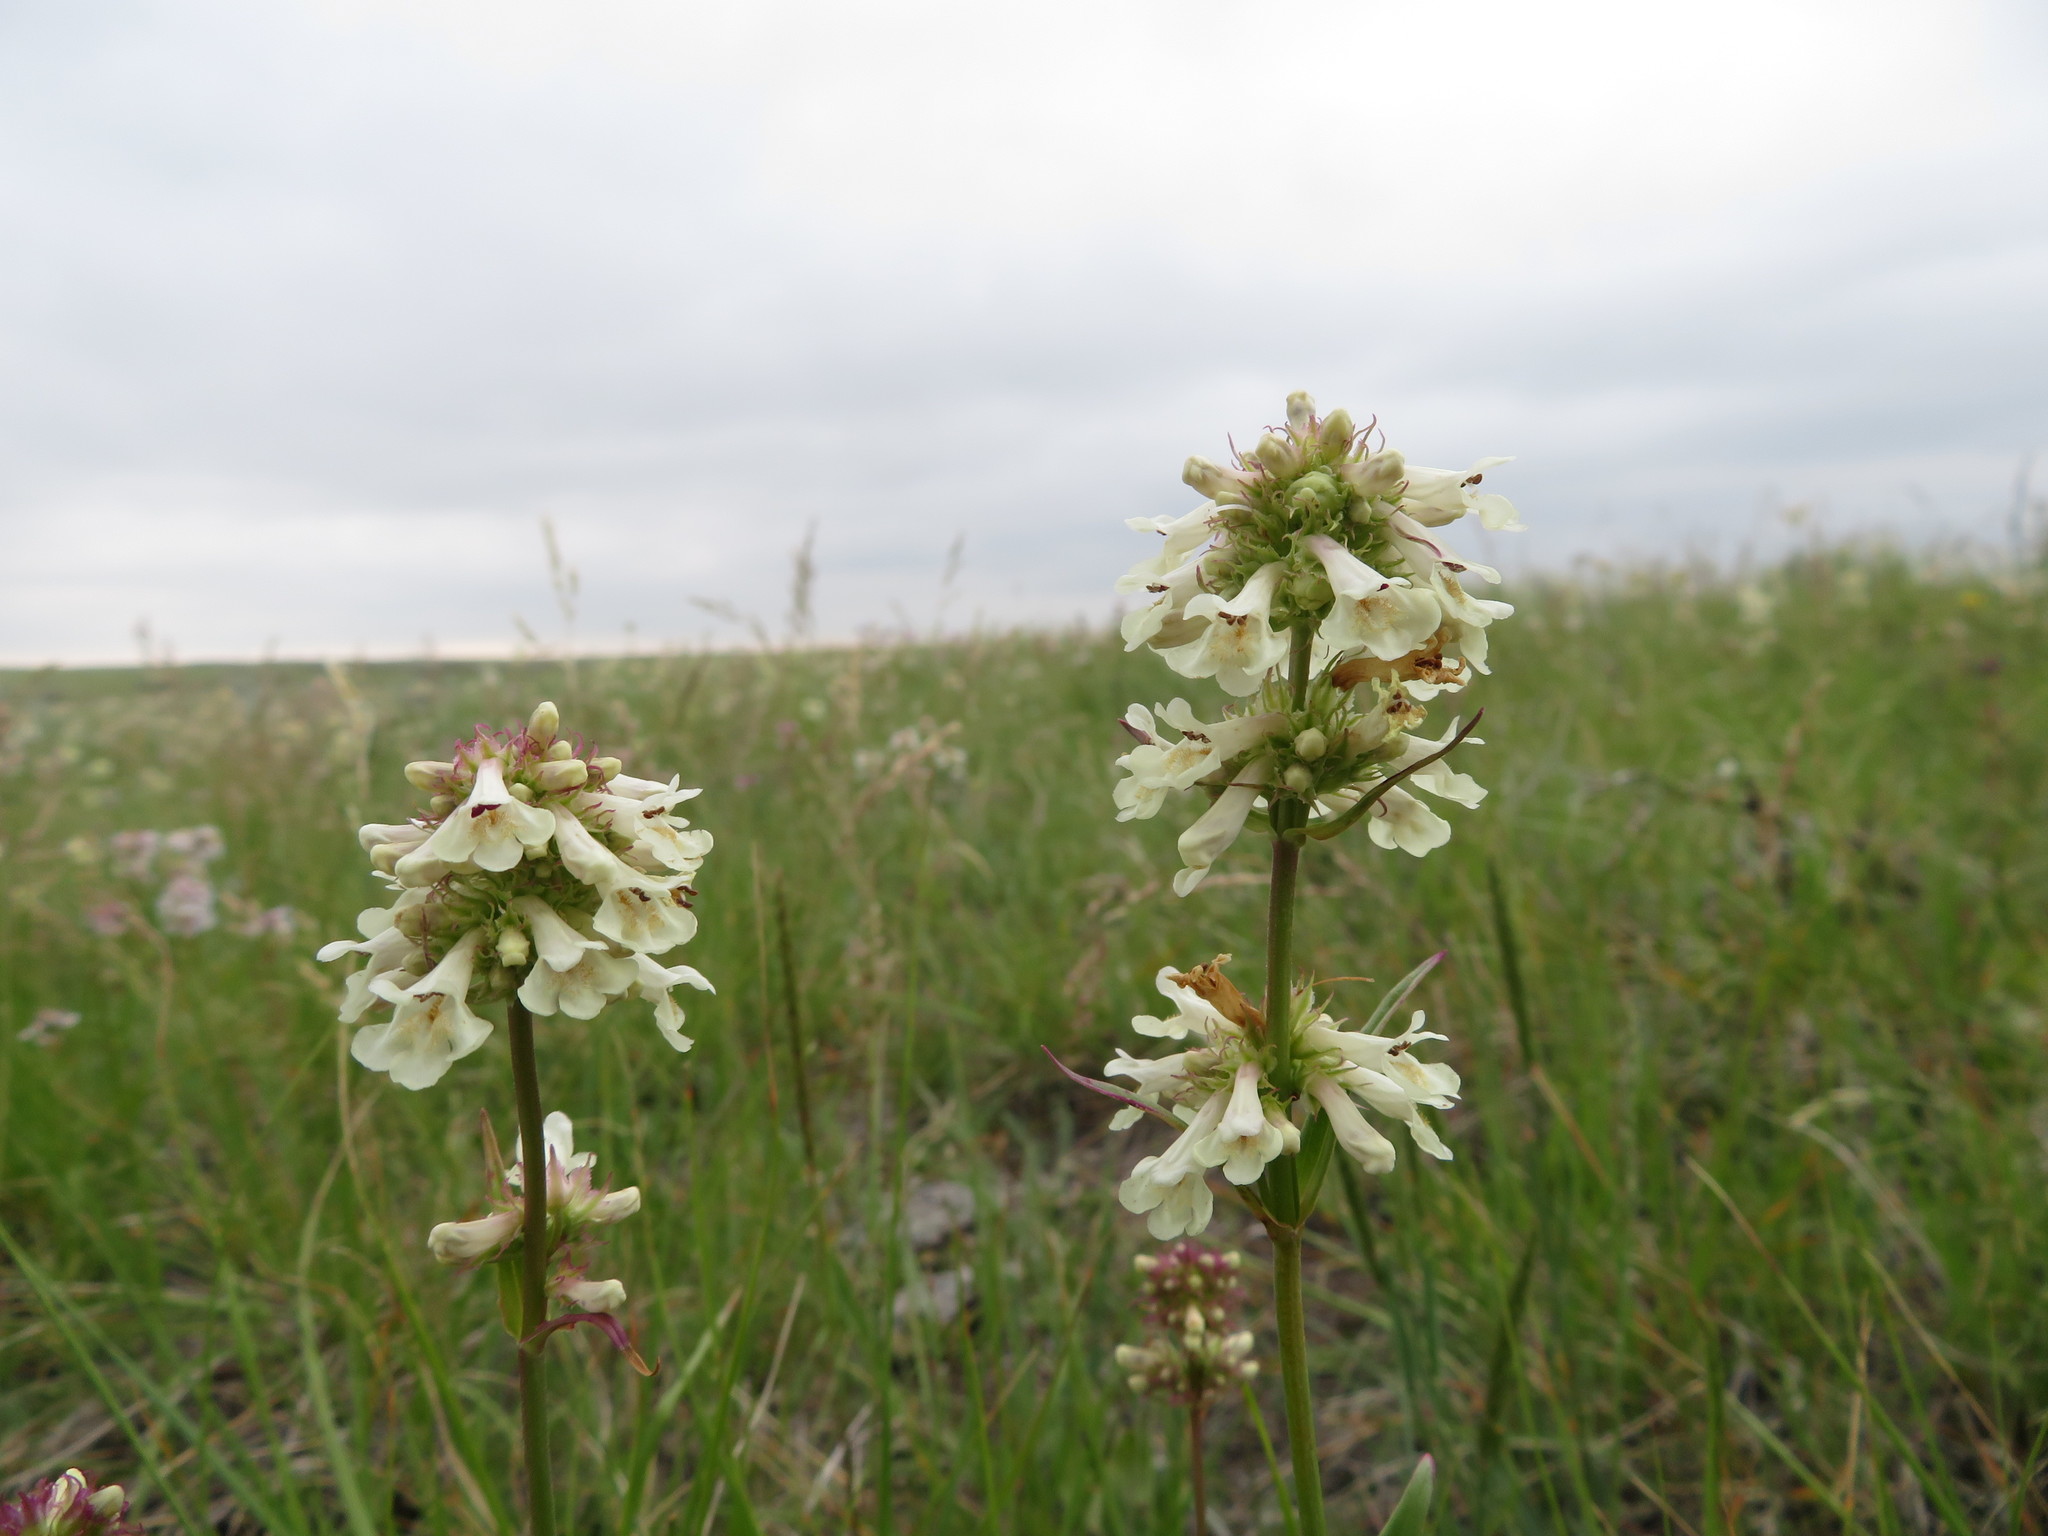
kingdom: Plantae
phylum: Tracheophyta
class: Magnoliopsida
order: Lamiales
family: Plantaginaceae
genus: Penstemon
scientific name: Penstemon confertus
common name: Lesser yellow beardtongue
